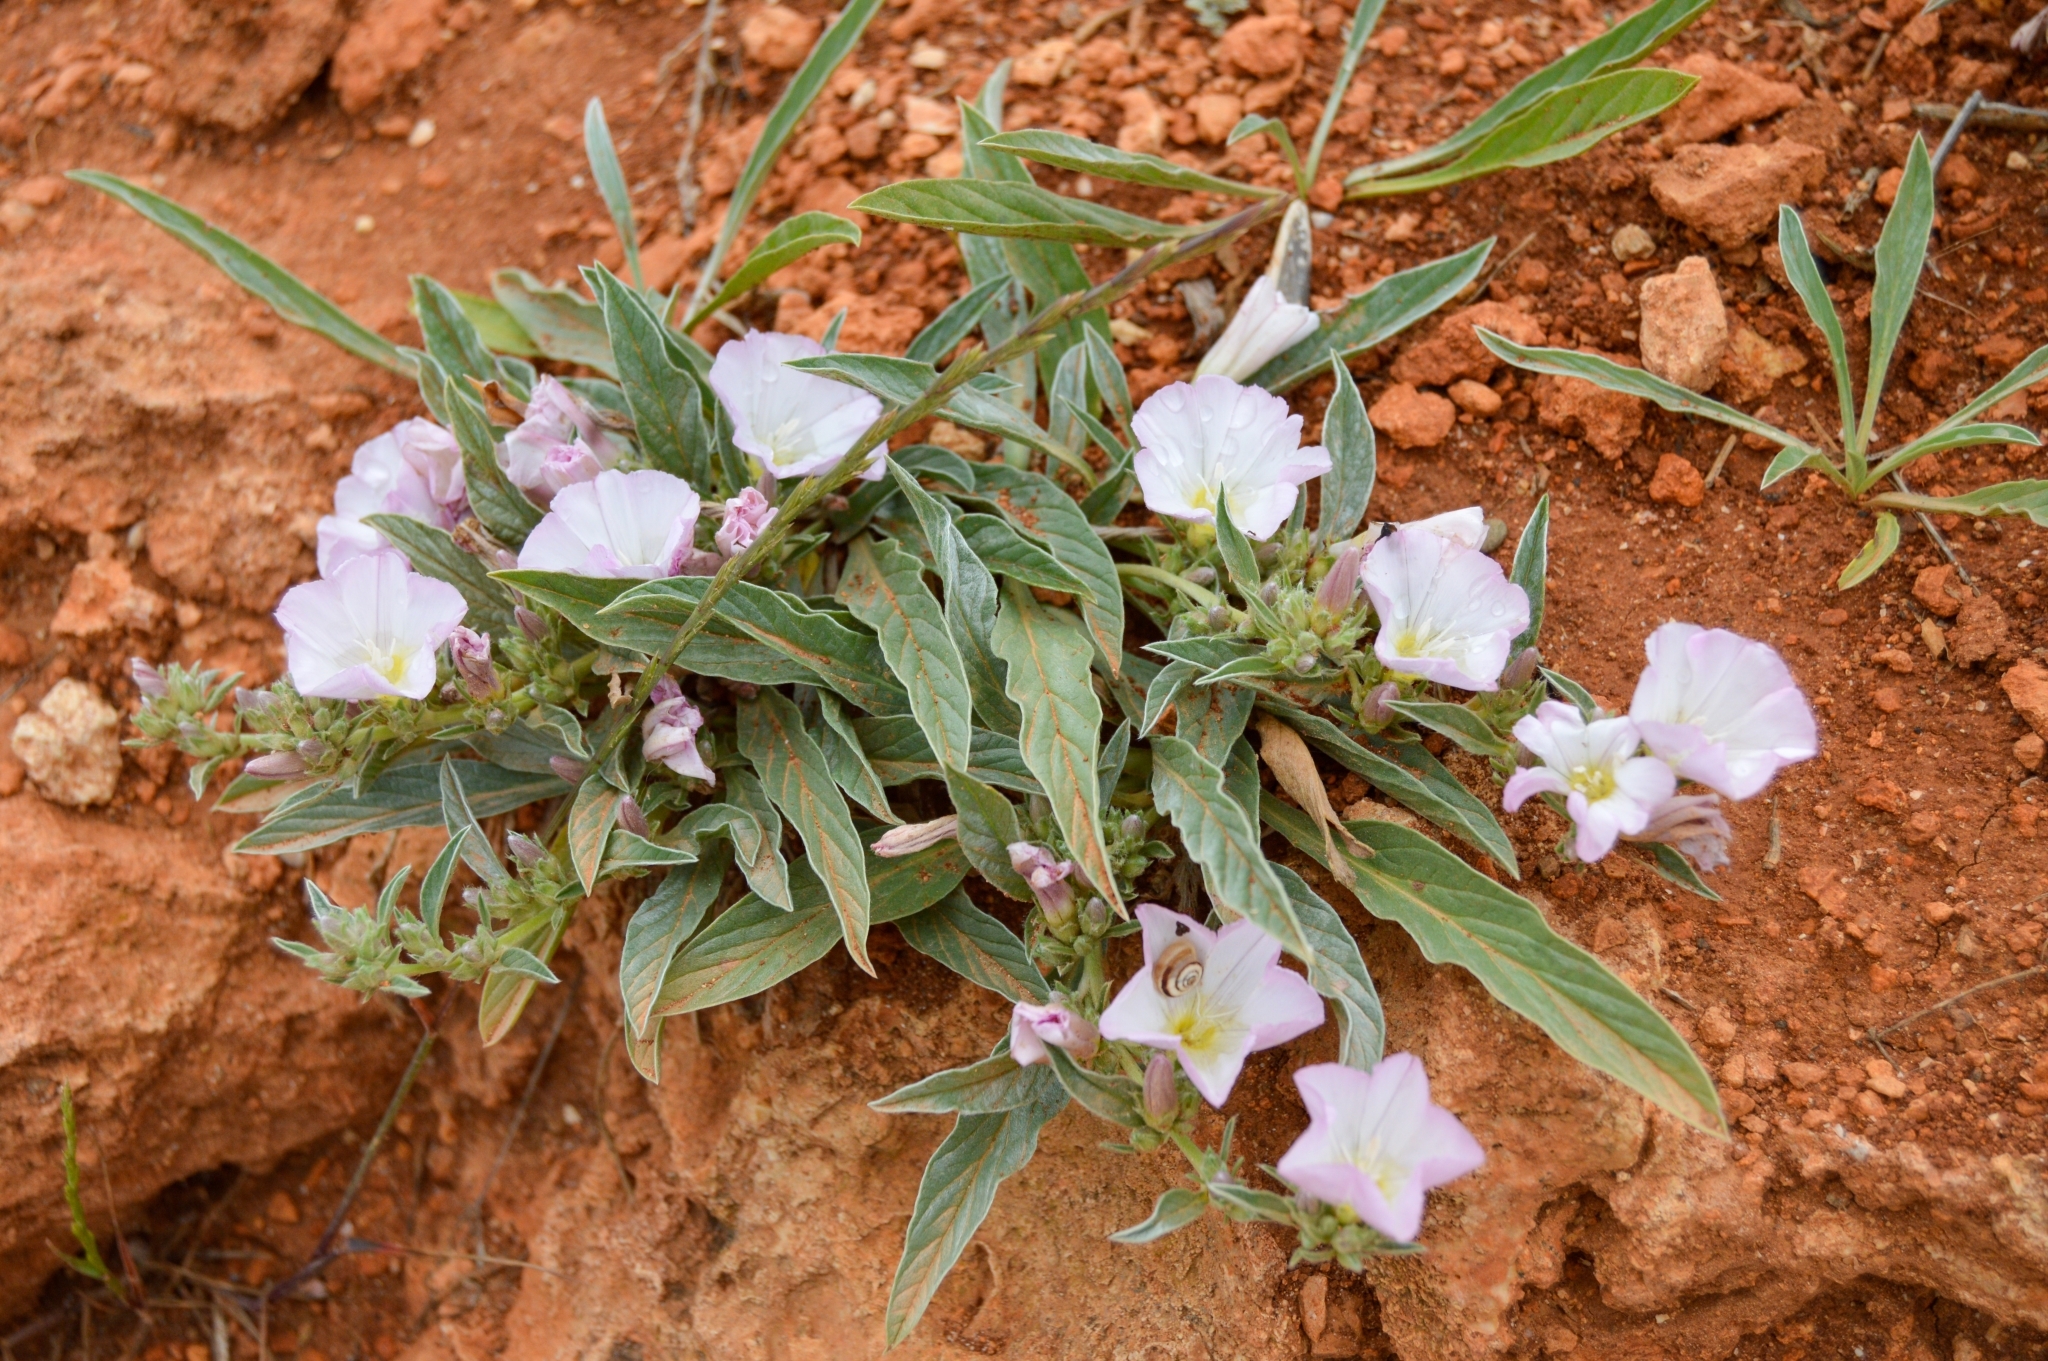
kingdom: Plantae
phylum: Tracheophyta
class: Magnoliopsida
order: Solanales
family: Convolvulaceae
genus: Convolvulus
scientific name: Convolvulus lineatus
